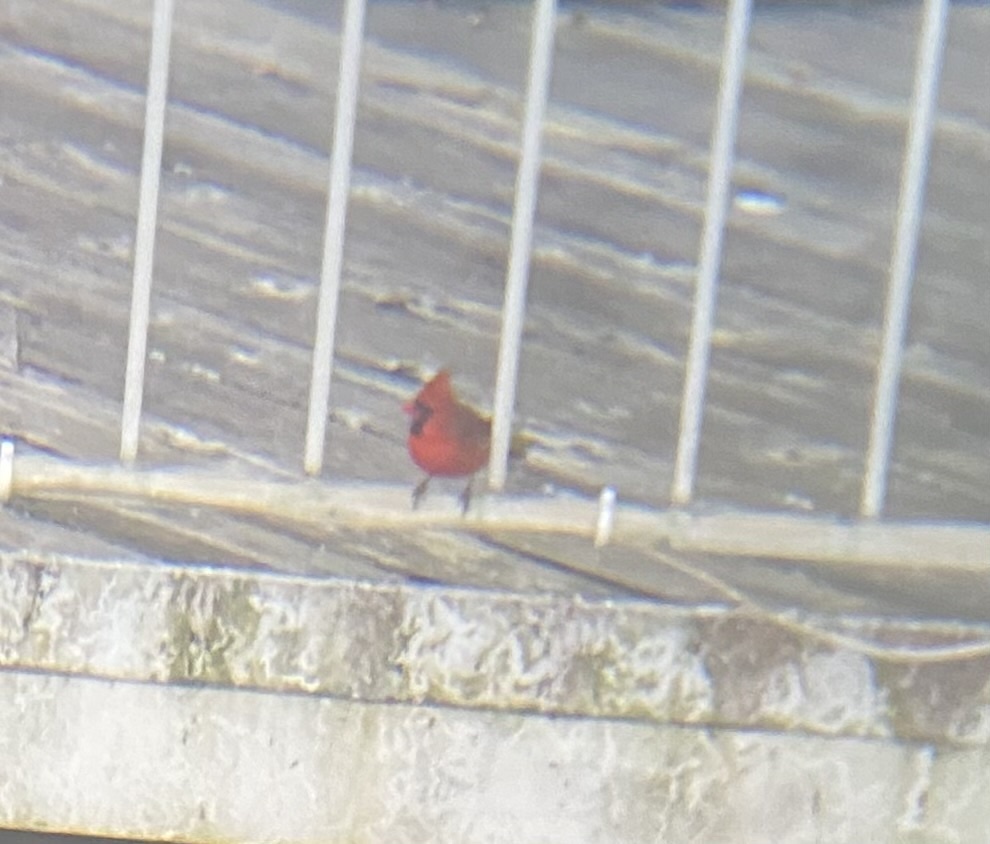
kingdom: Animalia
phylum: Chordata
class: Aves
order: Passeriformes
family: Cardinalidae
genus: Cardinalis
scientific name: Cardinalis cardinalis
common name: Northern cardinal
